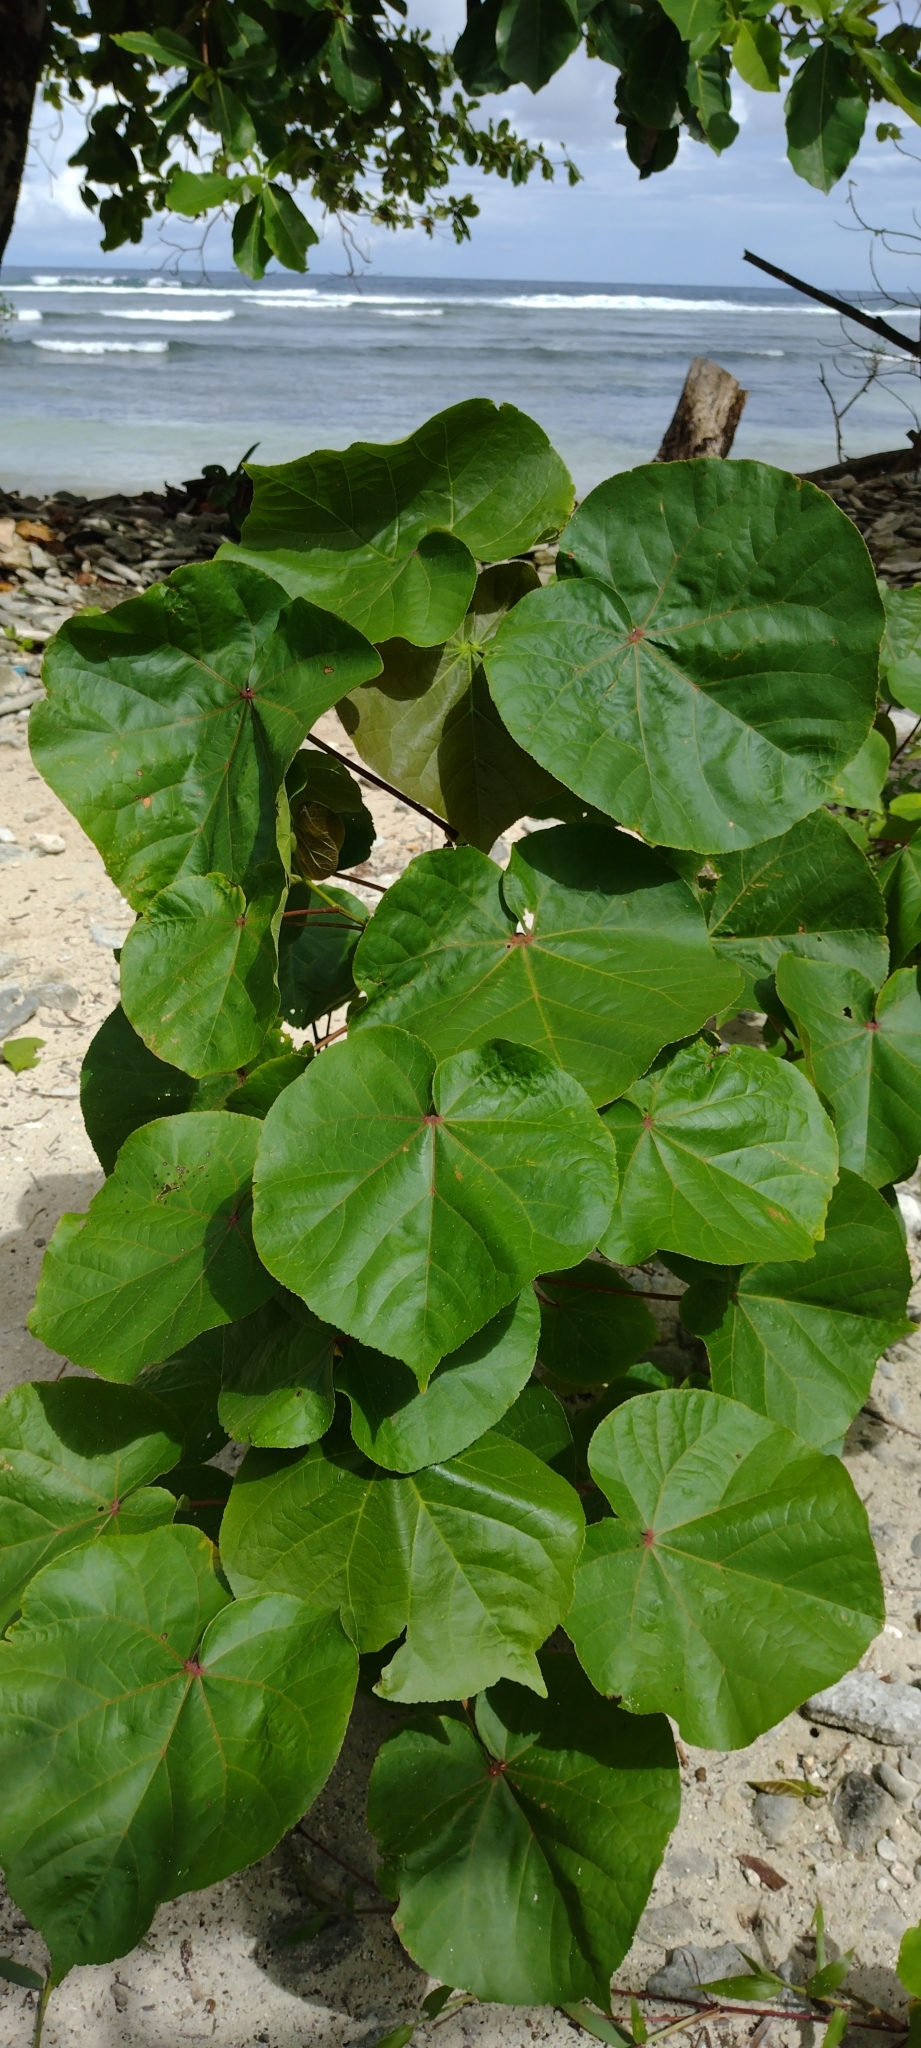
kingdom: Plantae
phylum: Tracheophyta
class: Magnoliopsida
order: Malvales
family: Malvaceae
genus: Talipariti
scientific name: Talipariti tiliaceum
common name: Sea hibiscus
